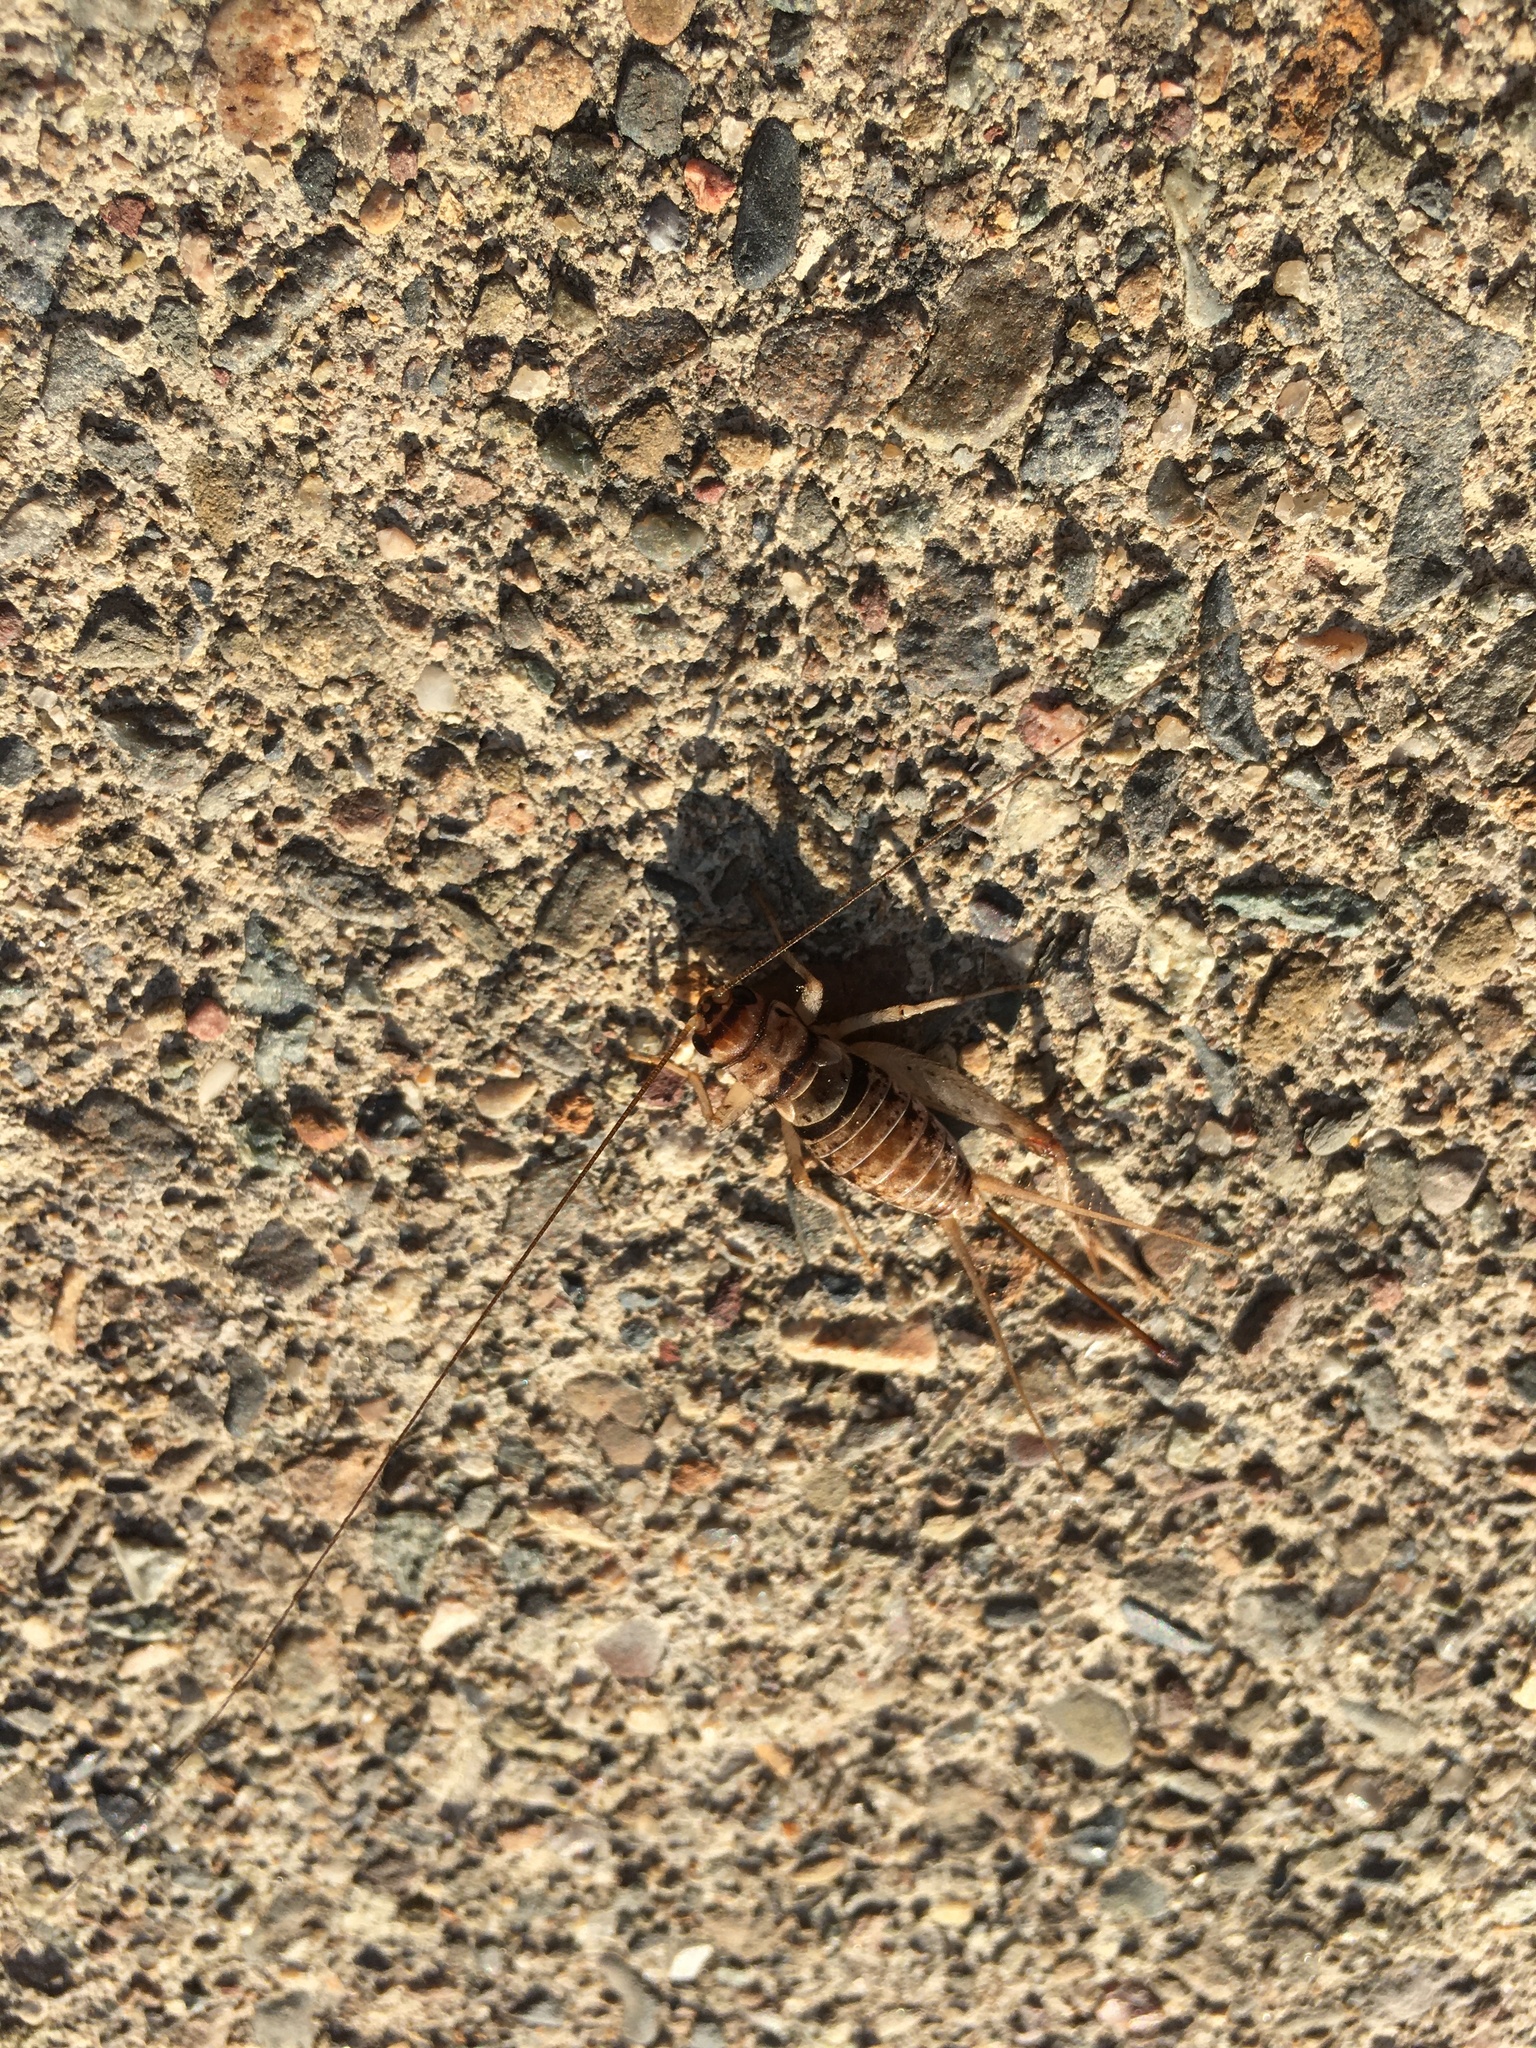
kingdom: Animalia
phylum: Arthropoda
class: Insecta
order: Orthoptera
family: Gryllidae
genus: Gryllodes
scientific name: Gryllodes sigillatus
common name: Tropical house cricket
